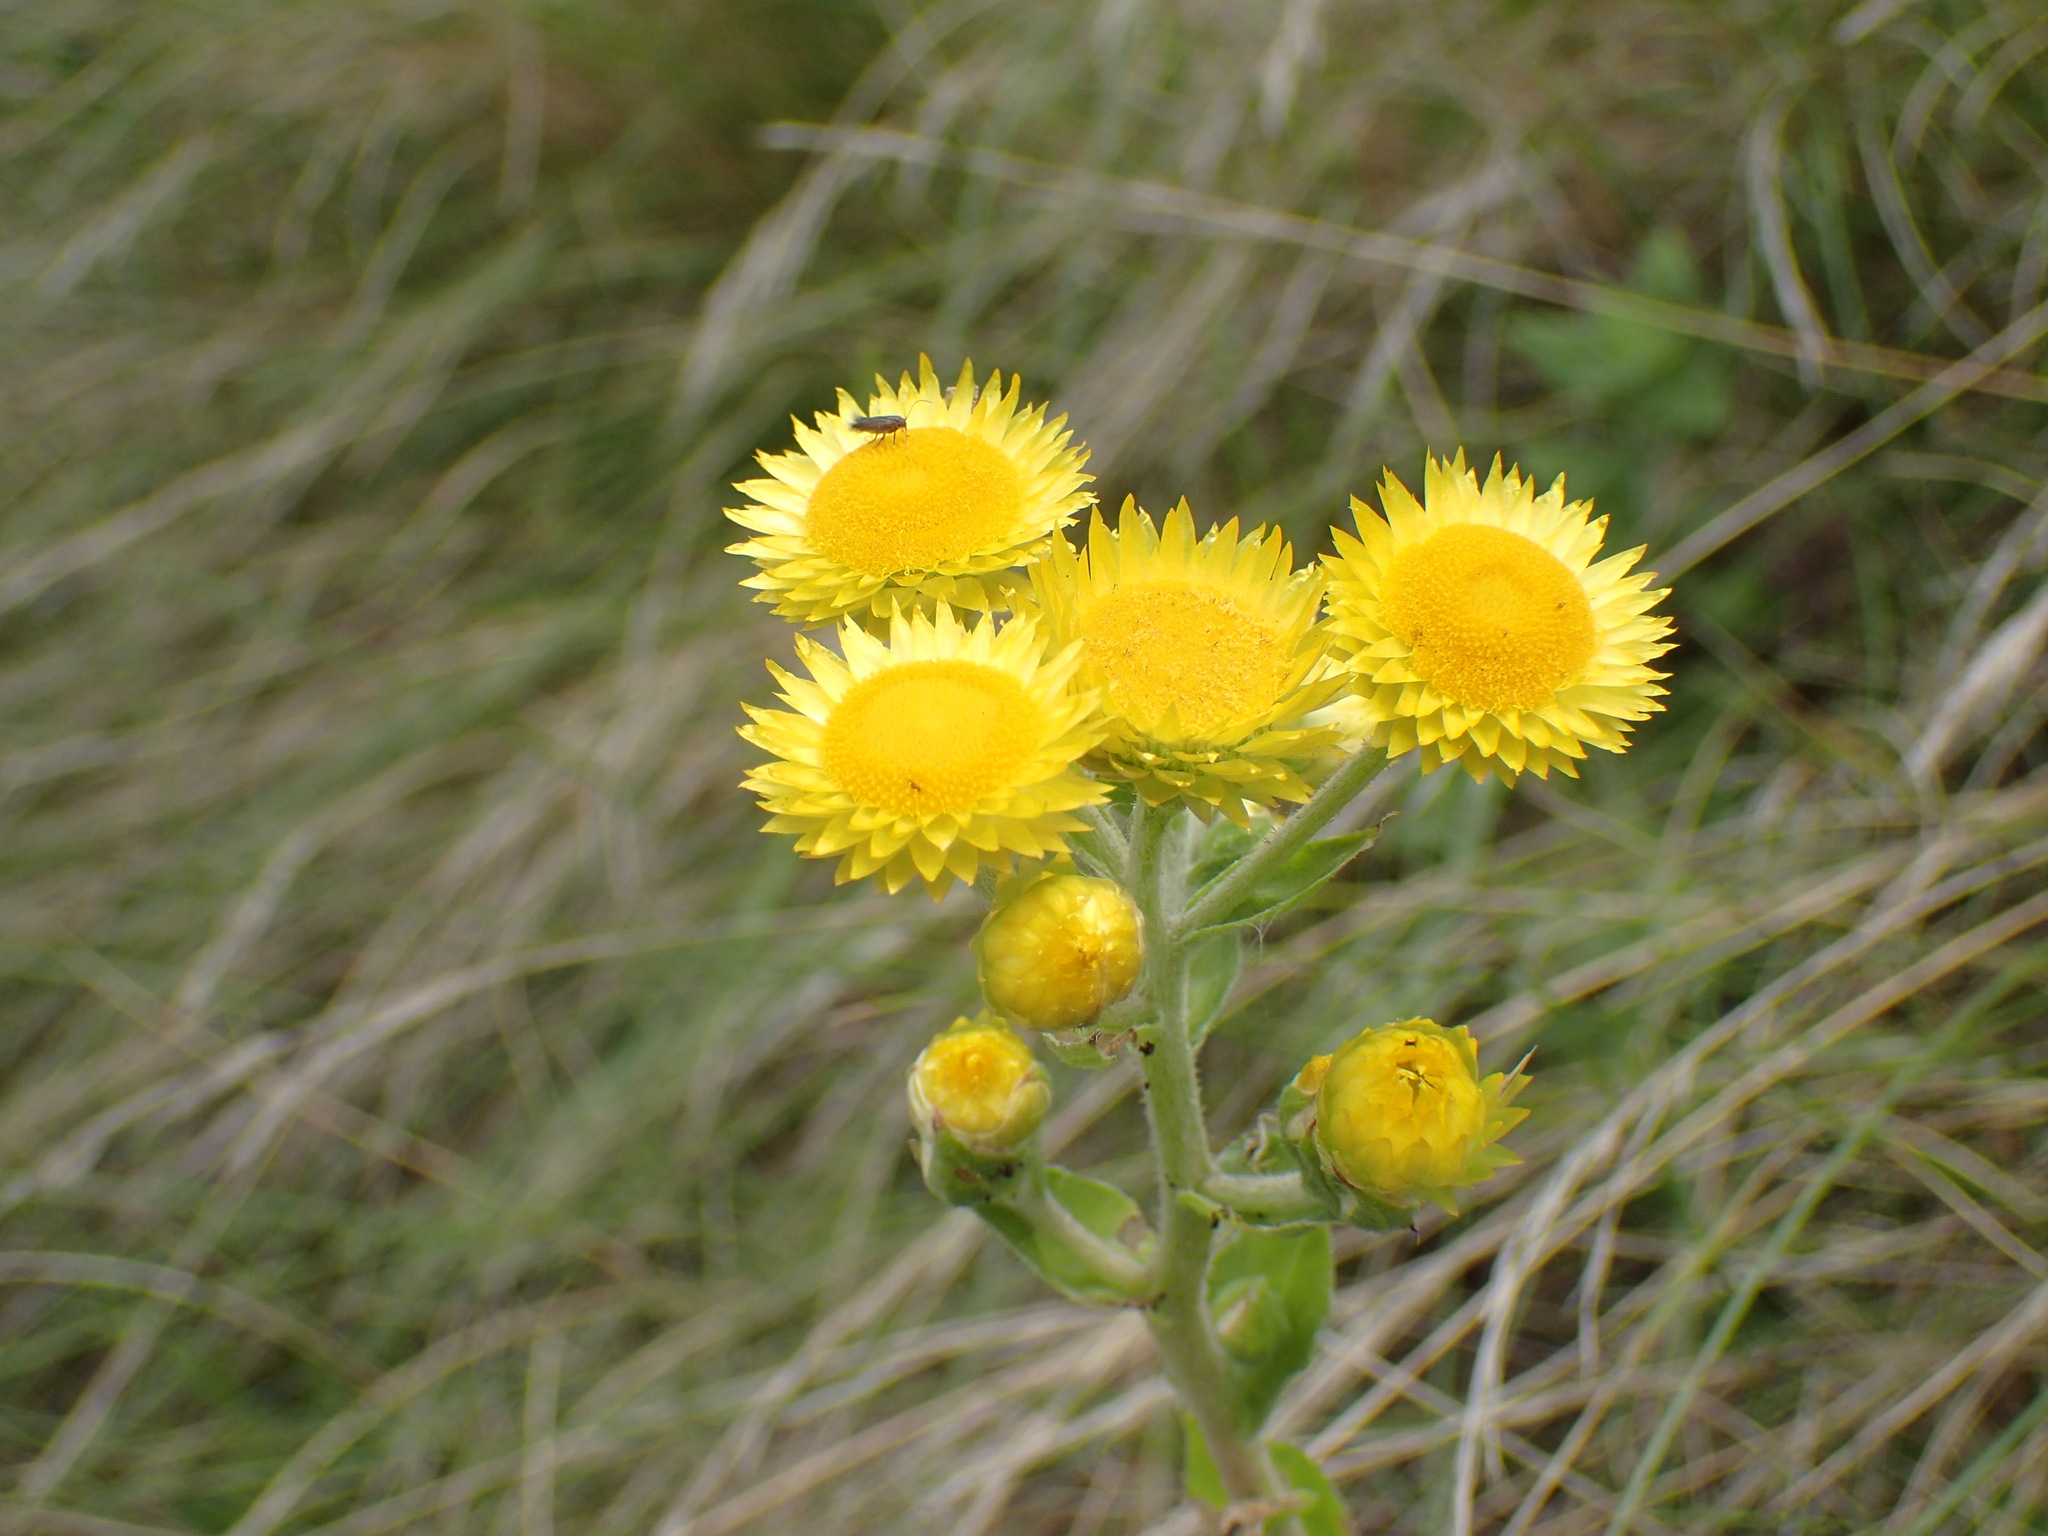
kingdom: Plantae
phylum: Tracheophyta
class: Magnoliopsida
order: Asterales
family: Asteraceae
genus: Helichrysum
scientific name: Helichrysum foetidum
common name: Stinking everlasting
